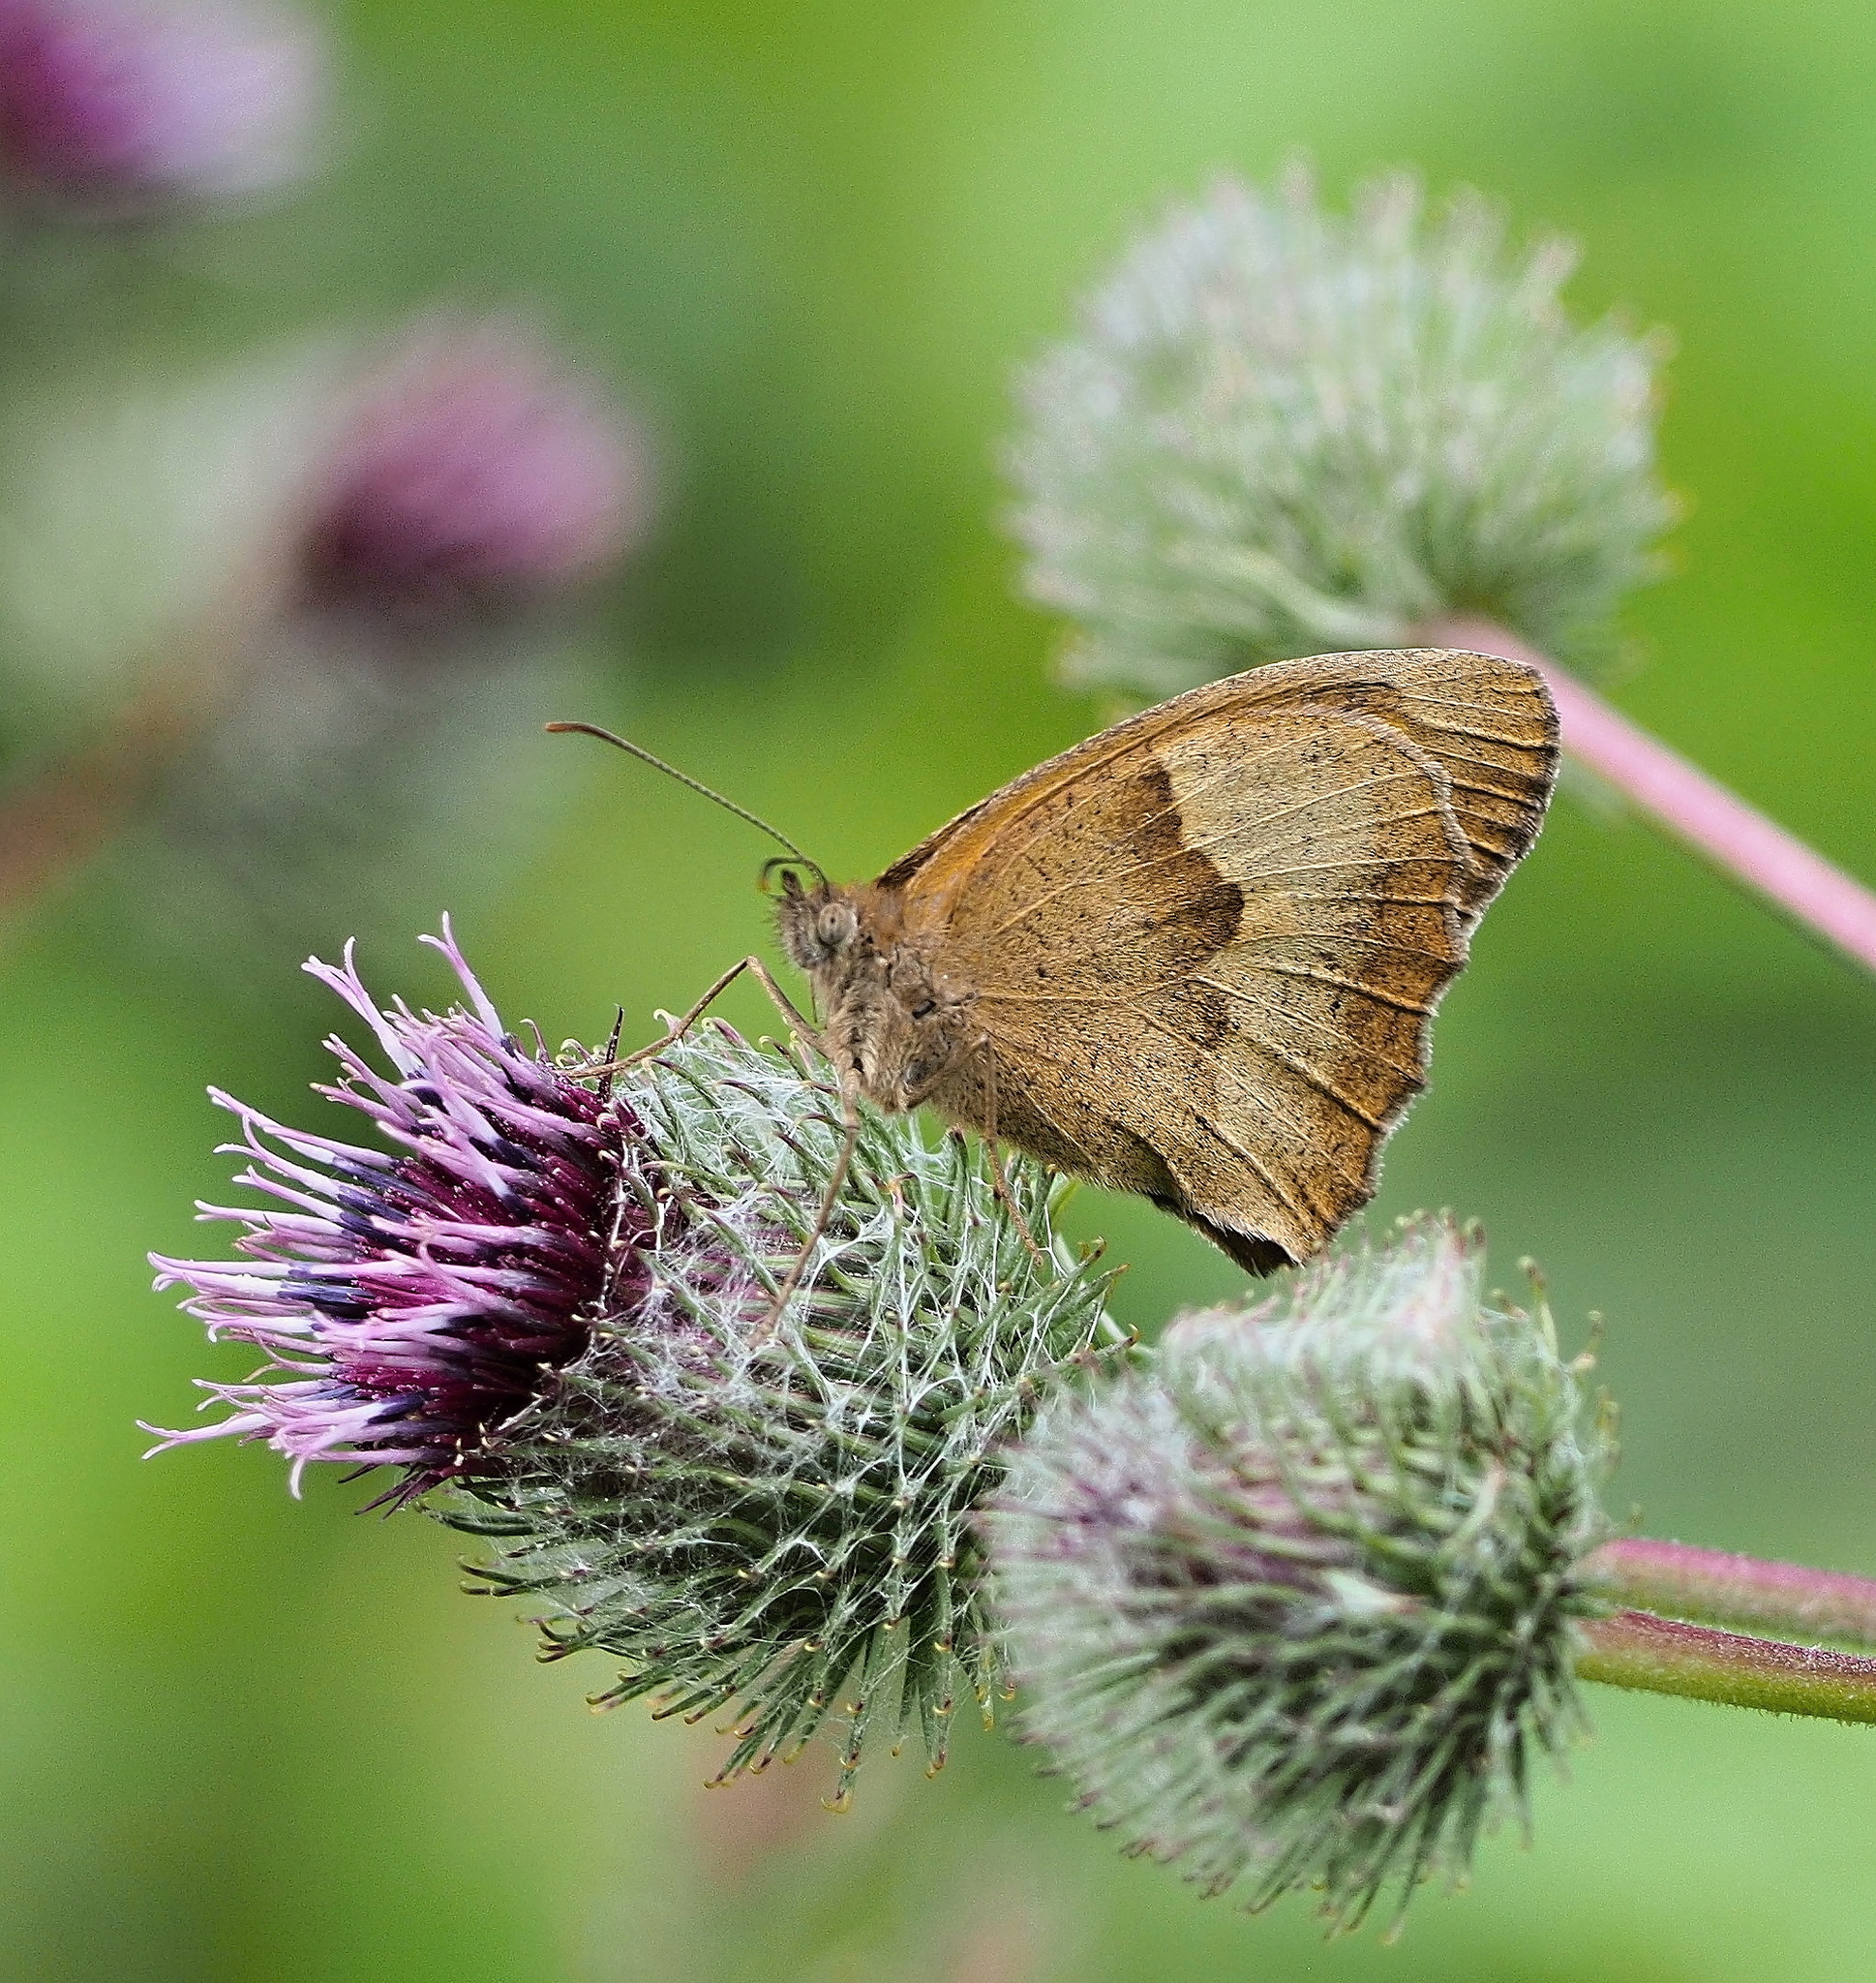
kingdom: Animalia
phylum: Arthropoda
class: Insecta
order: Lepidoptera
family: Nymphalidae
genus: Maniola
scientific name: Maniola jurtina
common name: Meadow brown
